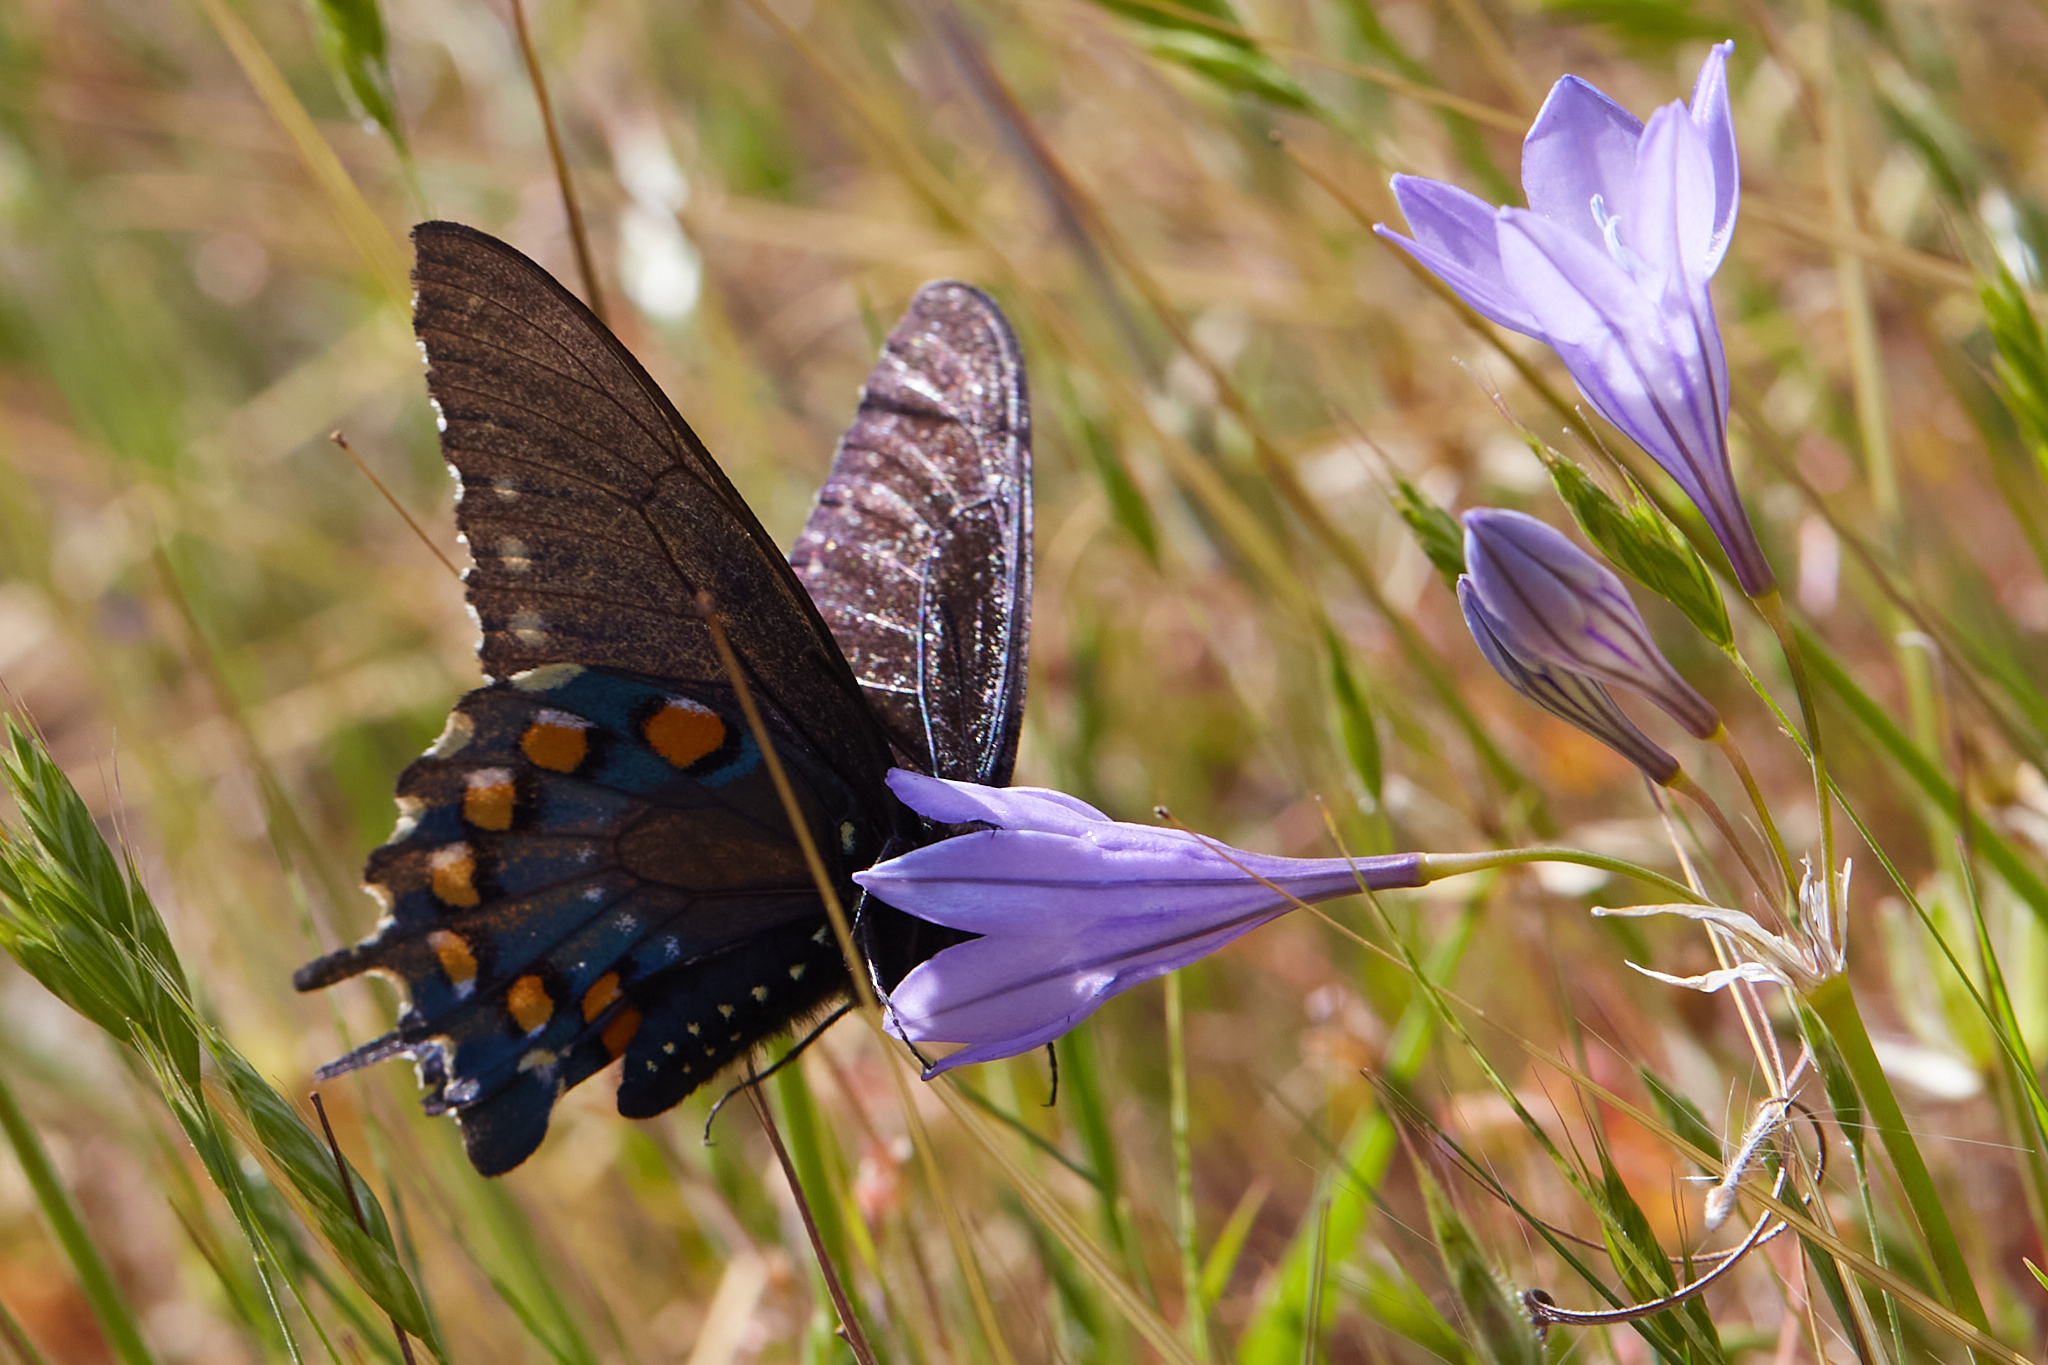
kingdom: Animalia
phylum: Arthropoda
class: Insecta
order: Lepidoptera
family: Papilionidae
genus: Battus
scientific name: Battus philenor
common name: Pipevine swallowtail
